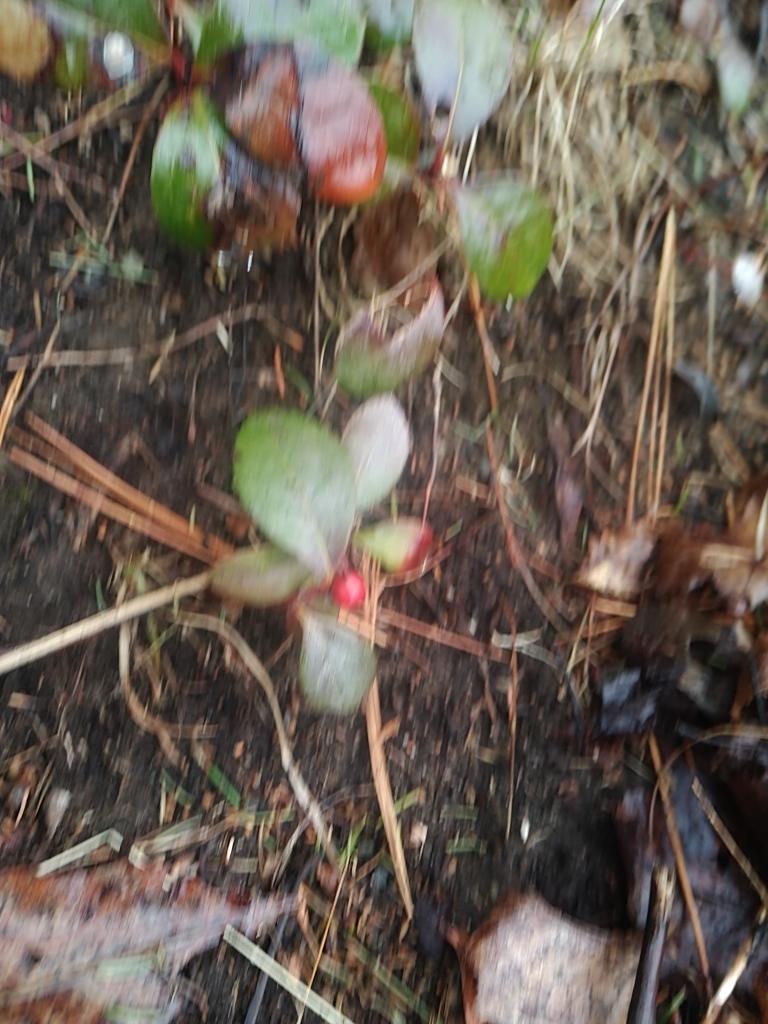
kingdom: Plantae
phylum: Tracheophyta
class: Magnoliopsida
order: Ericales
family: Ericaceae
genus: Gaultheria
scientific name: Gaultheria procumbens
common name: Checkerberry
